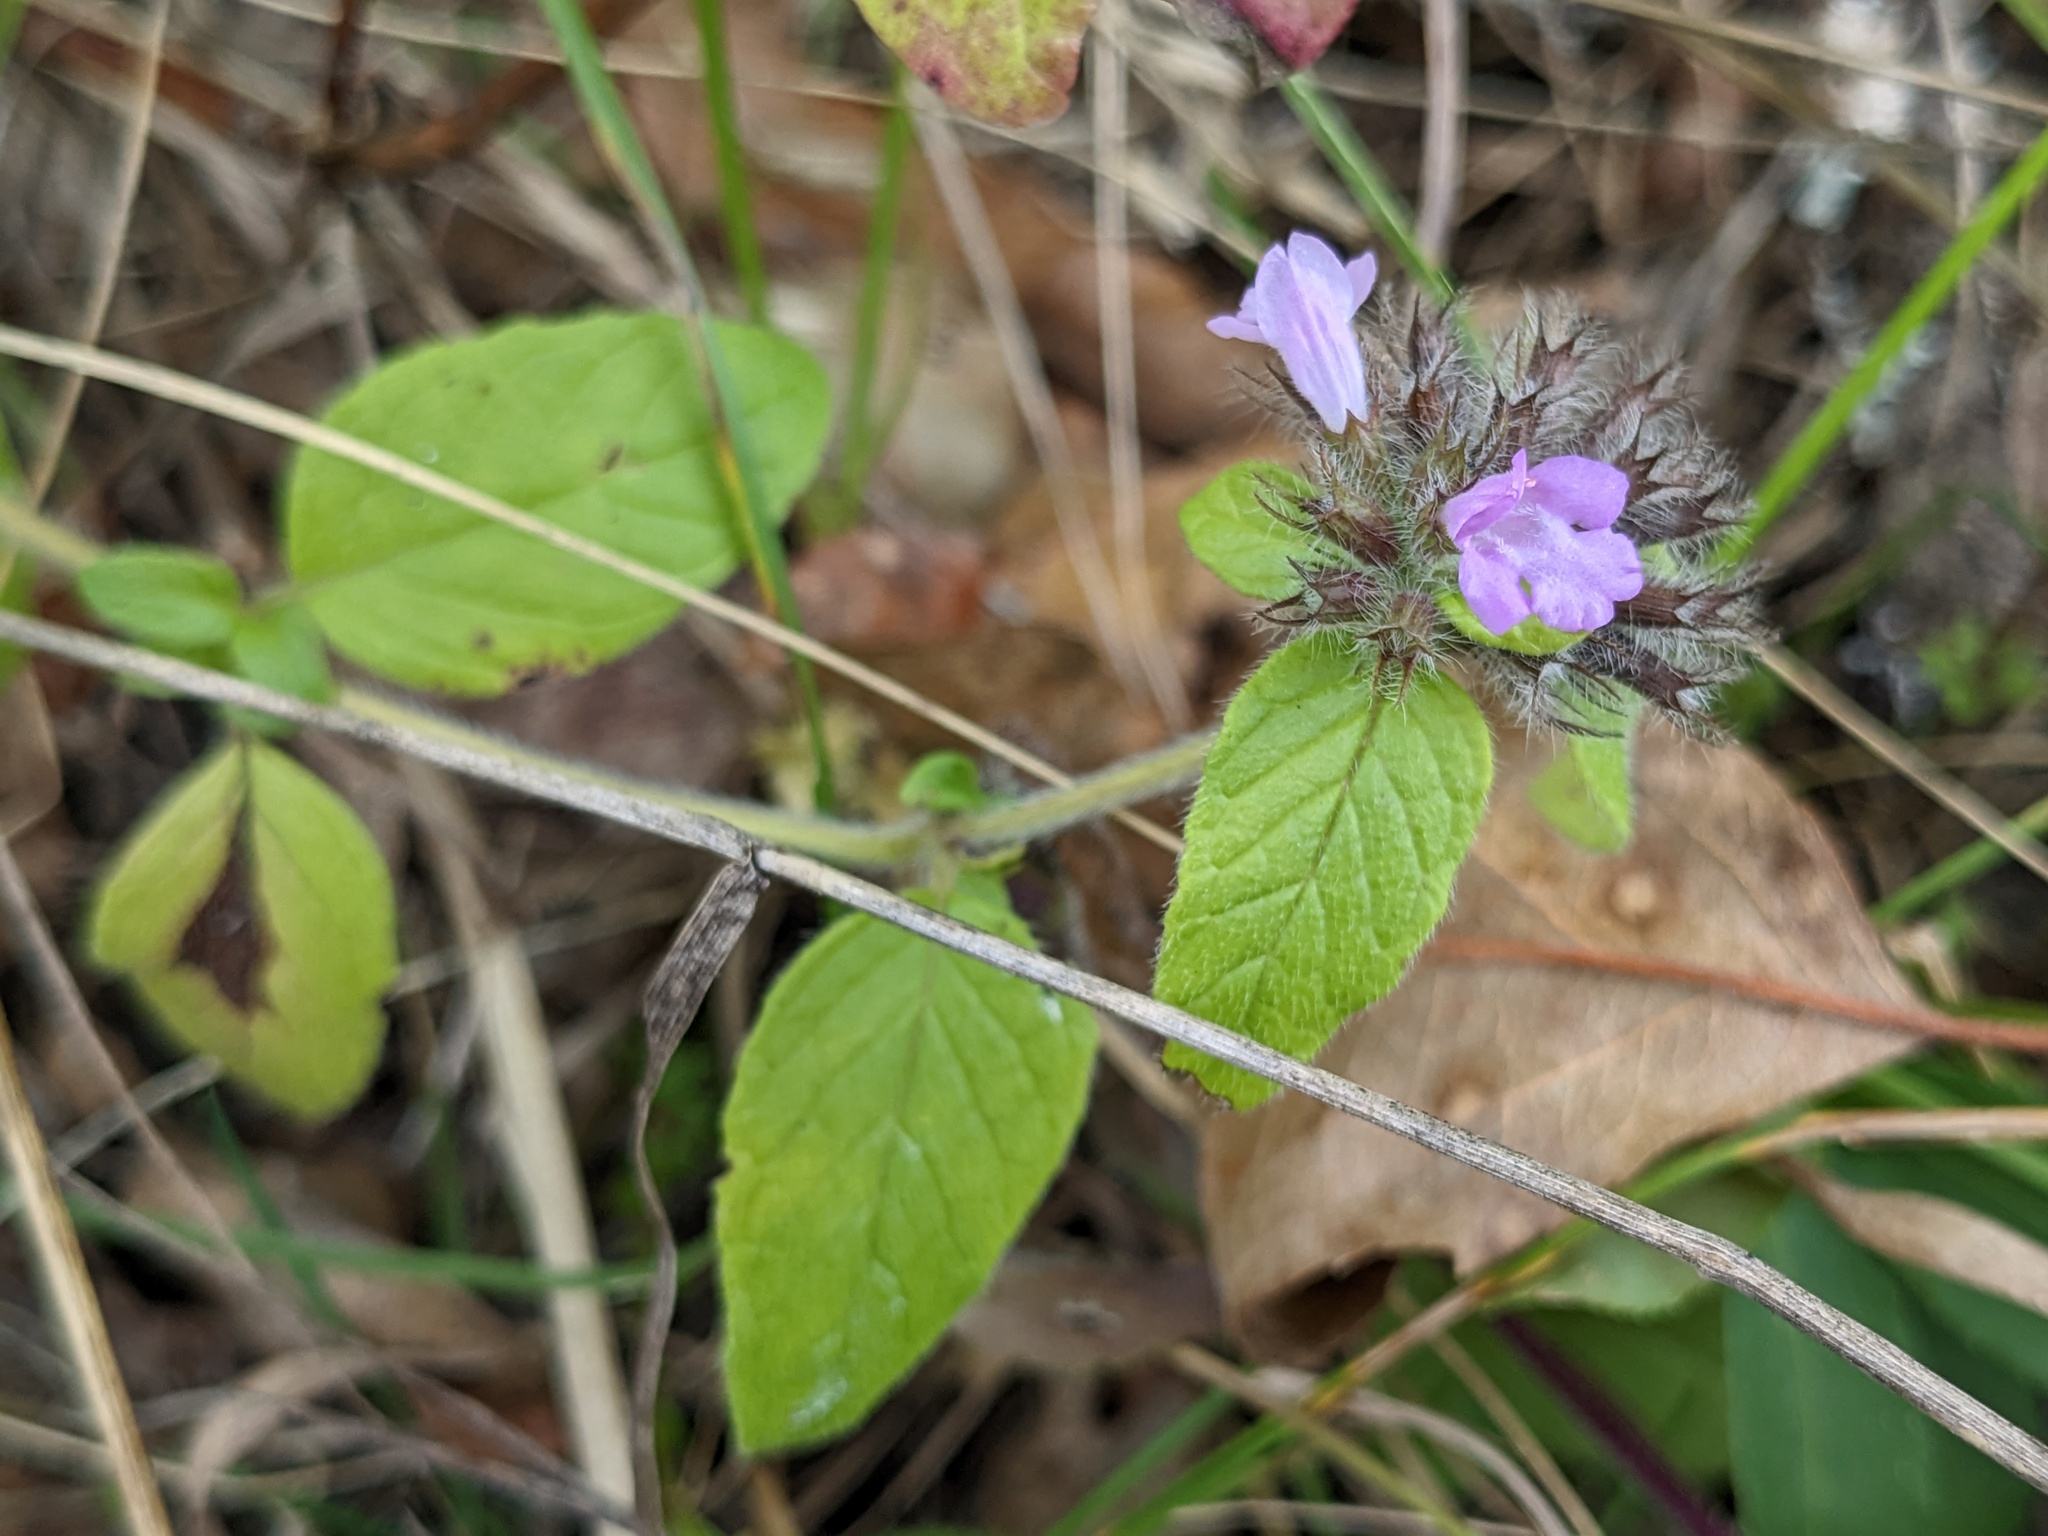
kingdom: Plantae
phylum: Tracheophyta
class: Magnoliopsida
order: Lamiales
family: Lamiaceae
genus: Clinopodium
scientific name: Clinopodium vulgare
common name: Wild basil
